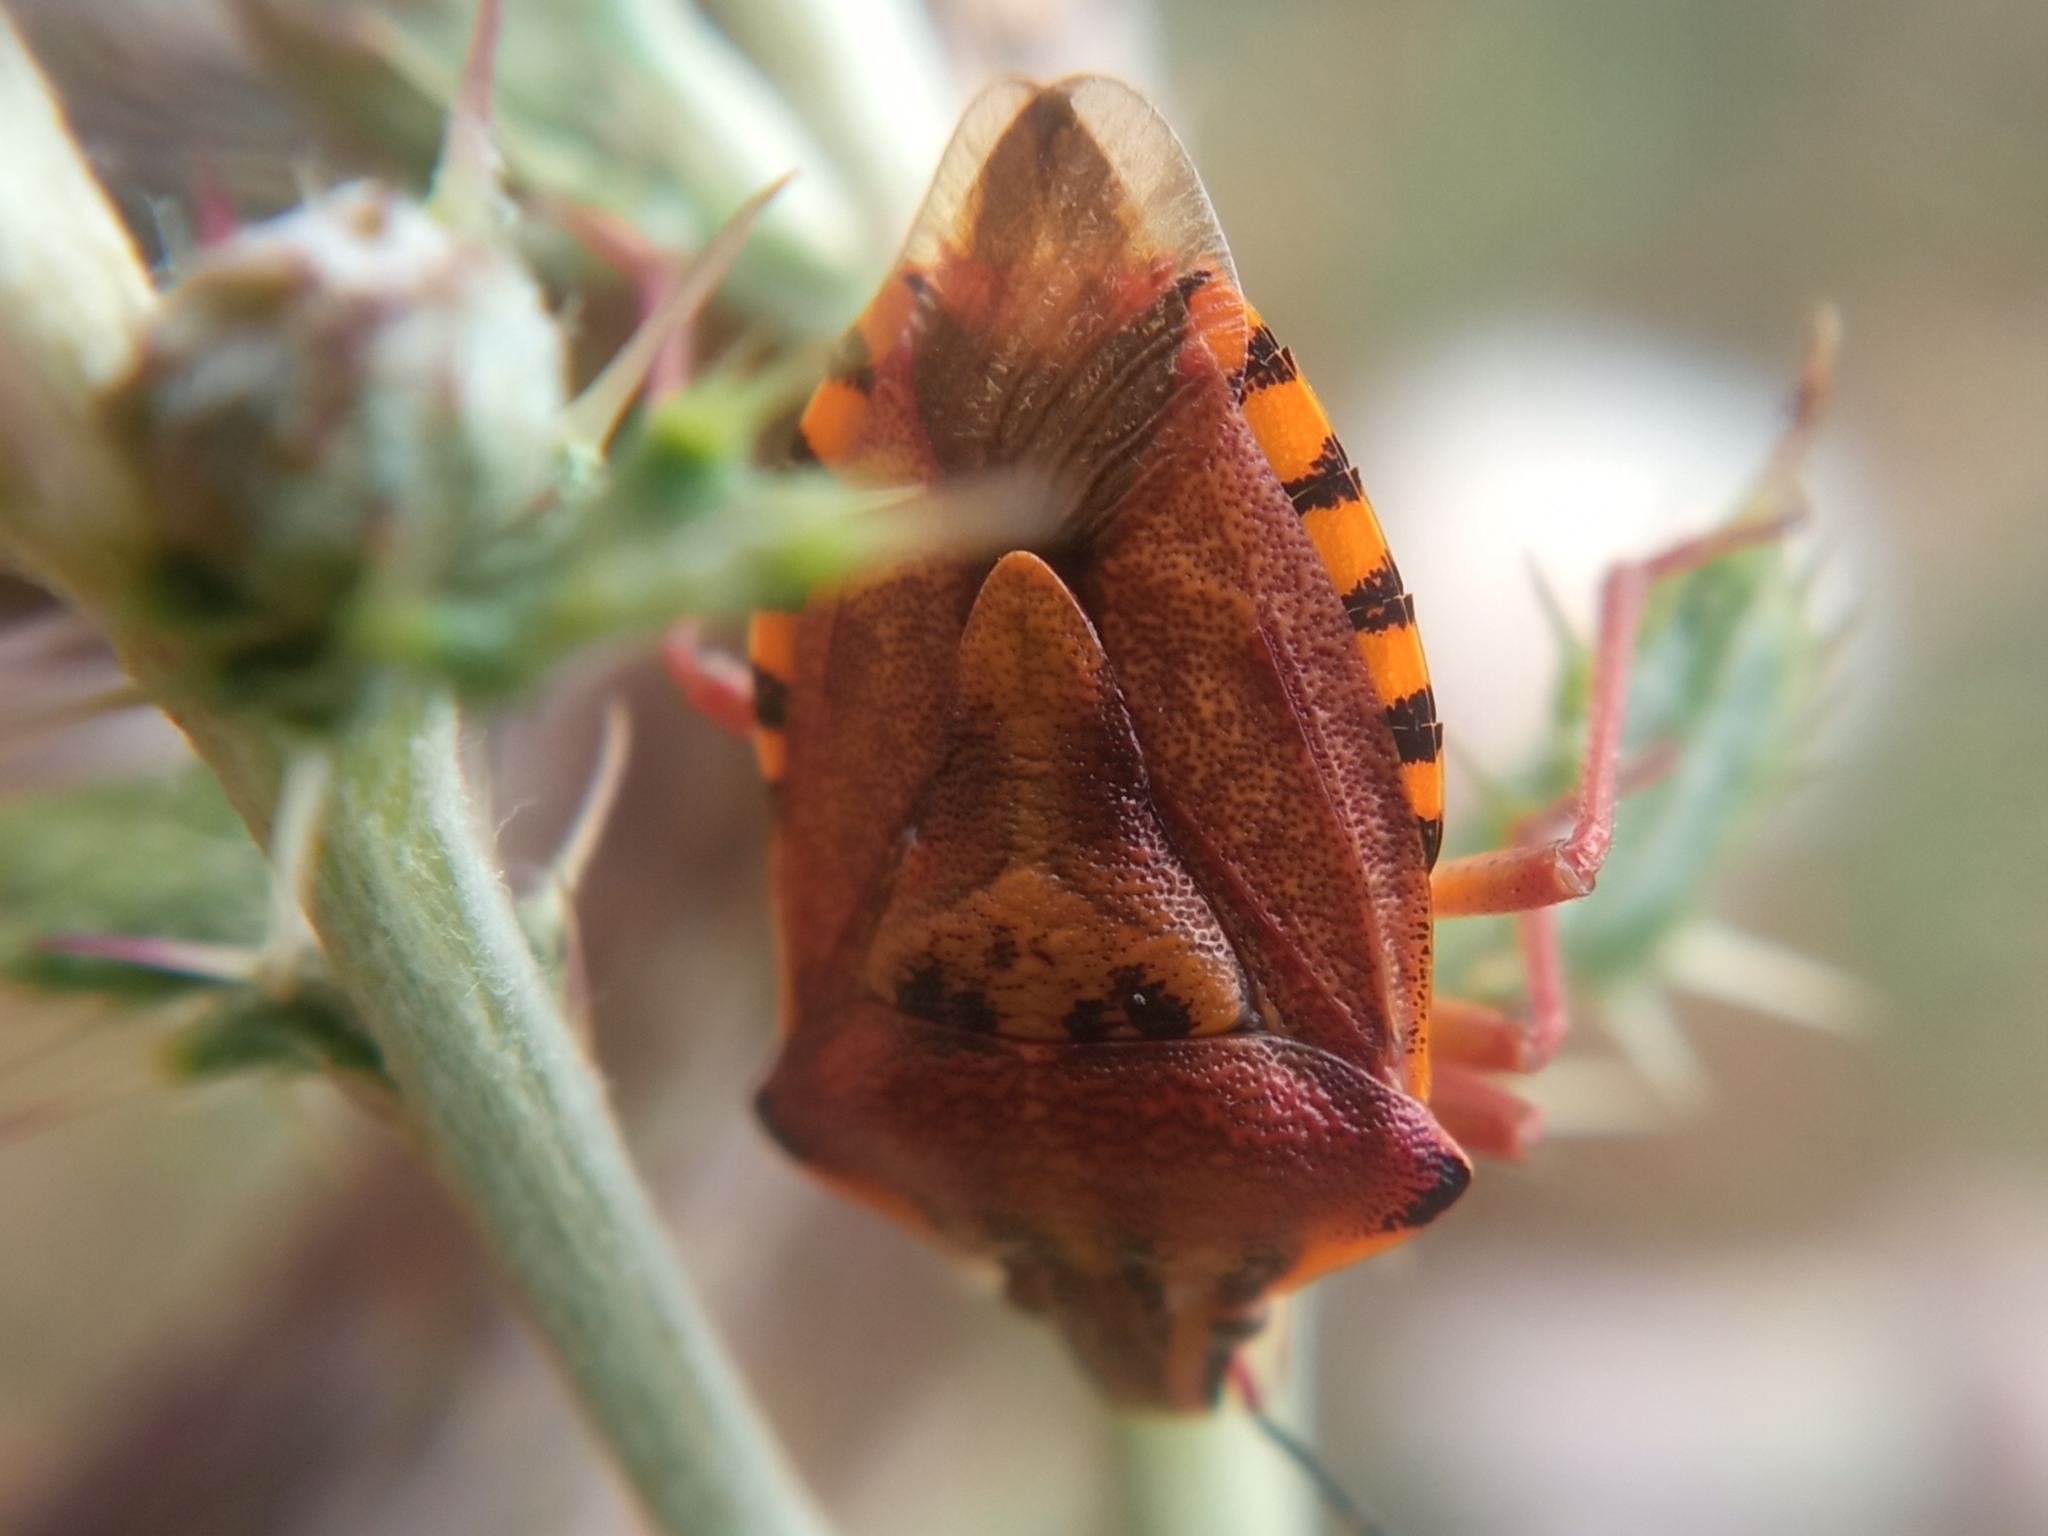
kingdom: Animalia
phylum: Arthropoda
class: Insecta
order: Hemiptera
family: Pentatomidae
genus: Carpocoris
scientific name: Carpocoris purpureipennis
